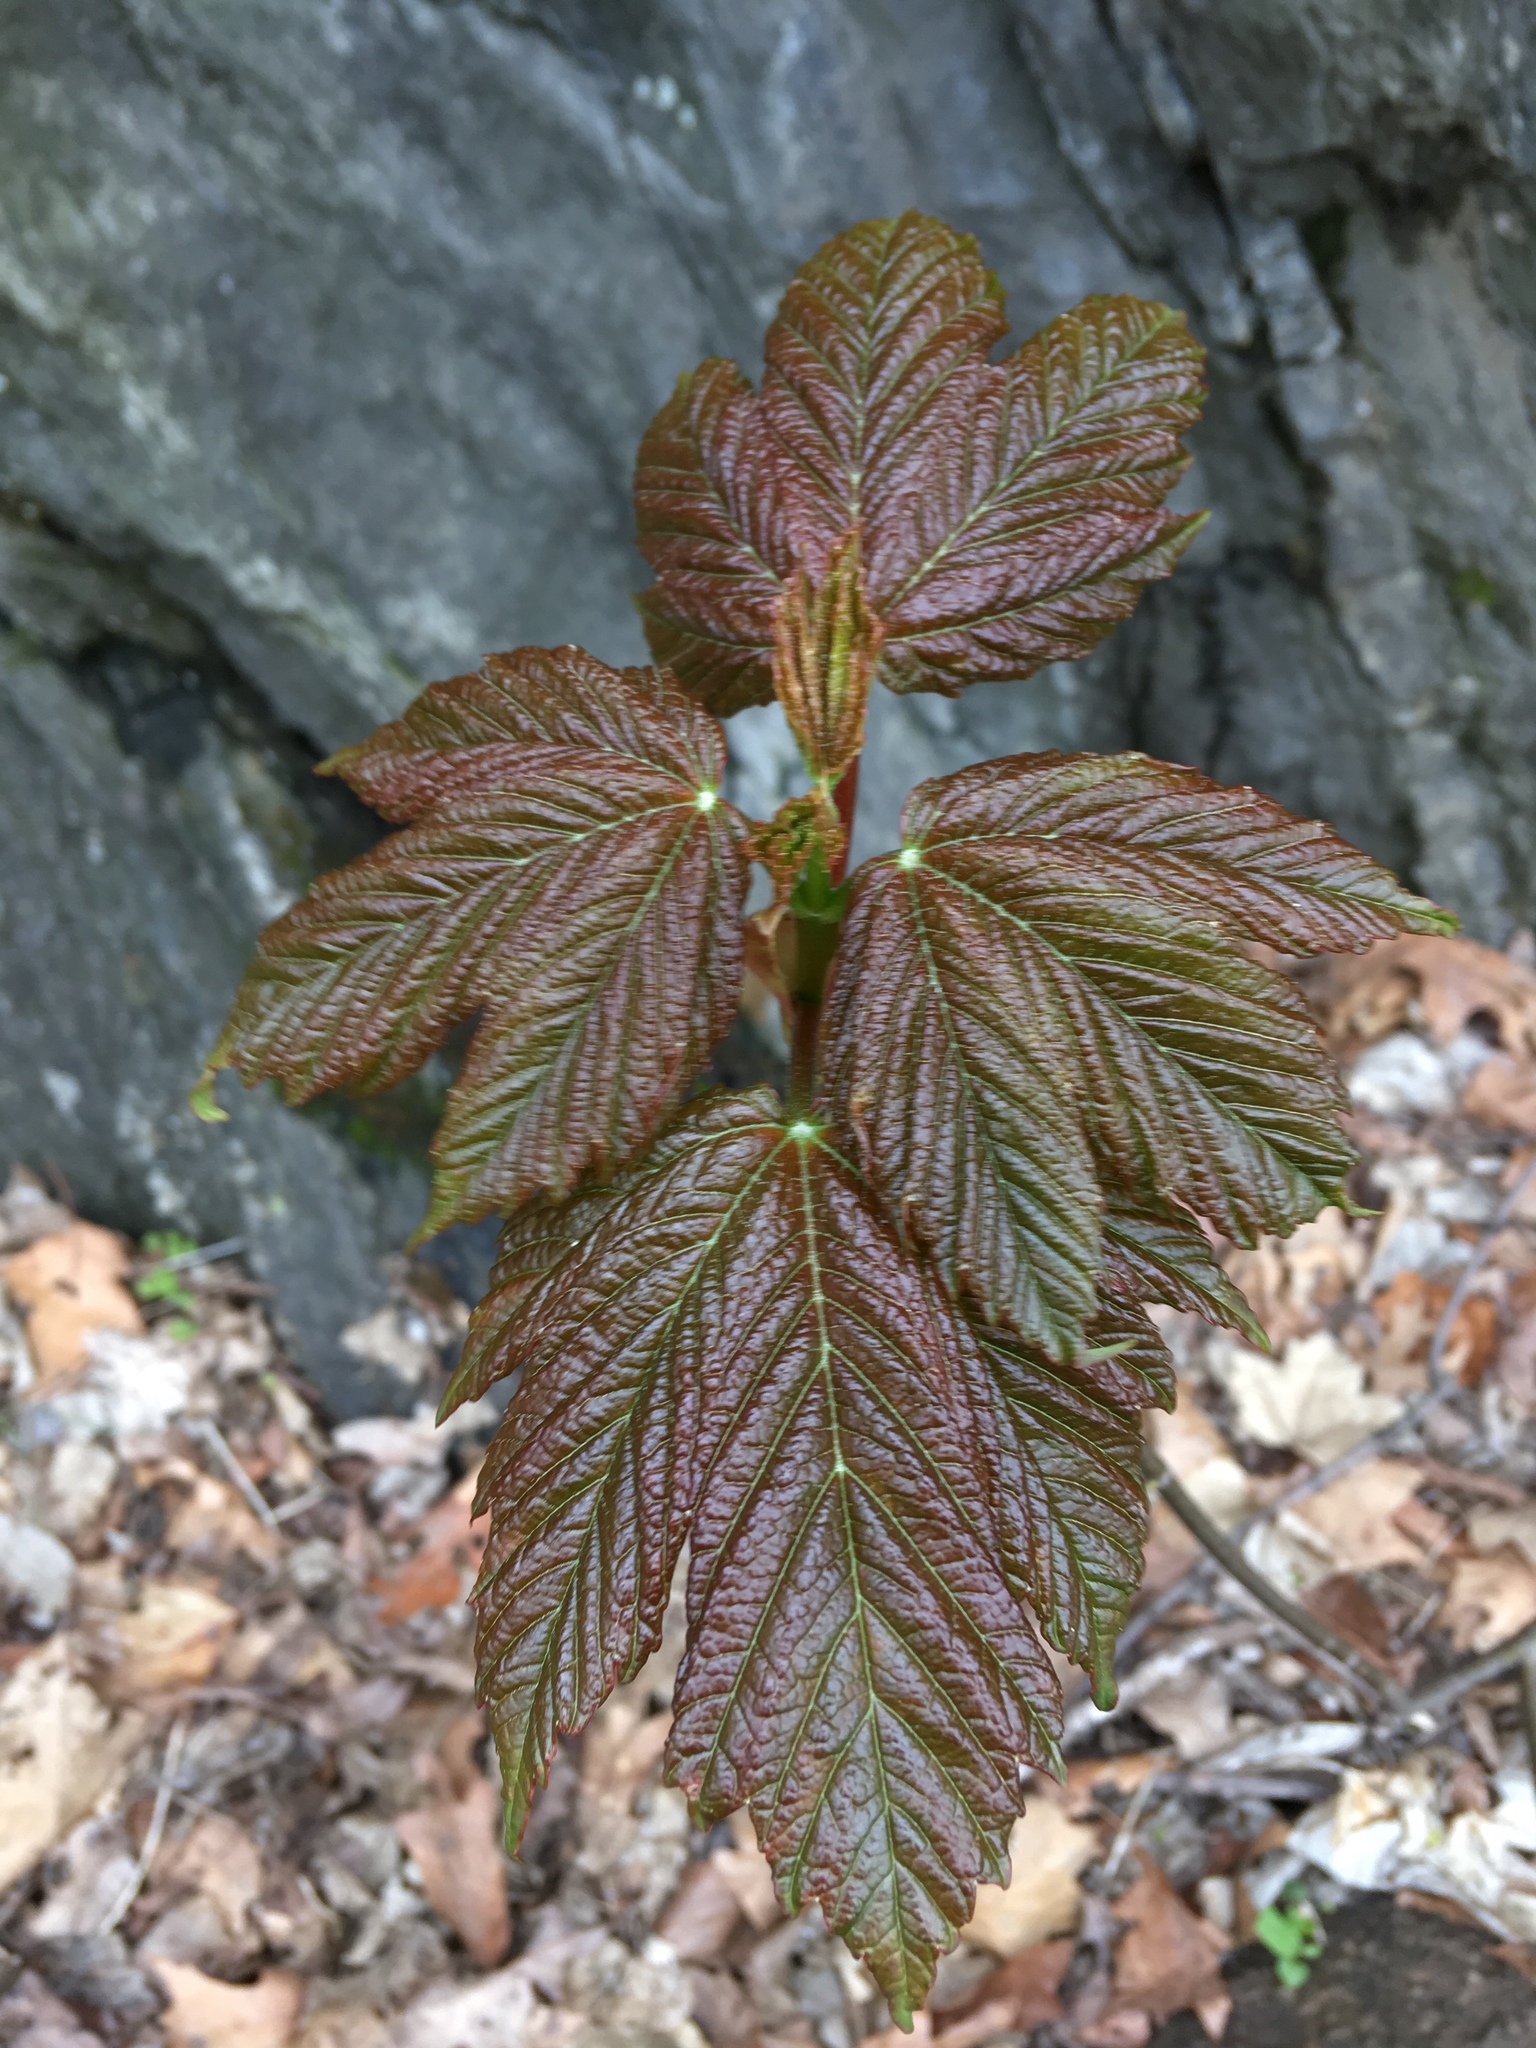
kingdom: Plantae
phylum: Tracheophyta
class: Magnoliopsida
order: Sapindales
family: Sapindaceae
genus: Acer
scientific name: Acer rubrum
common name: Red maple
